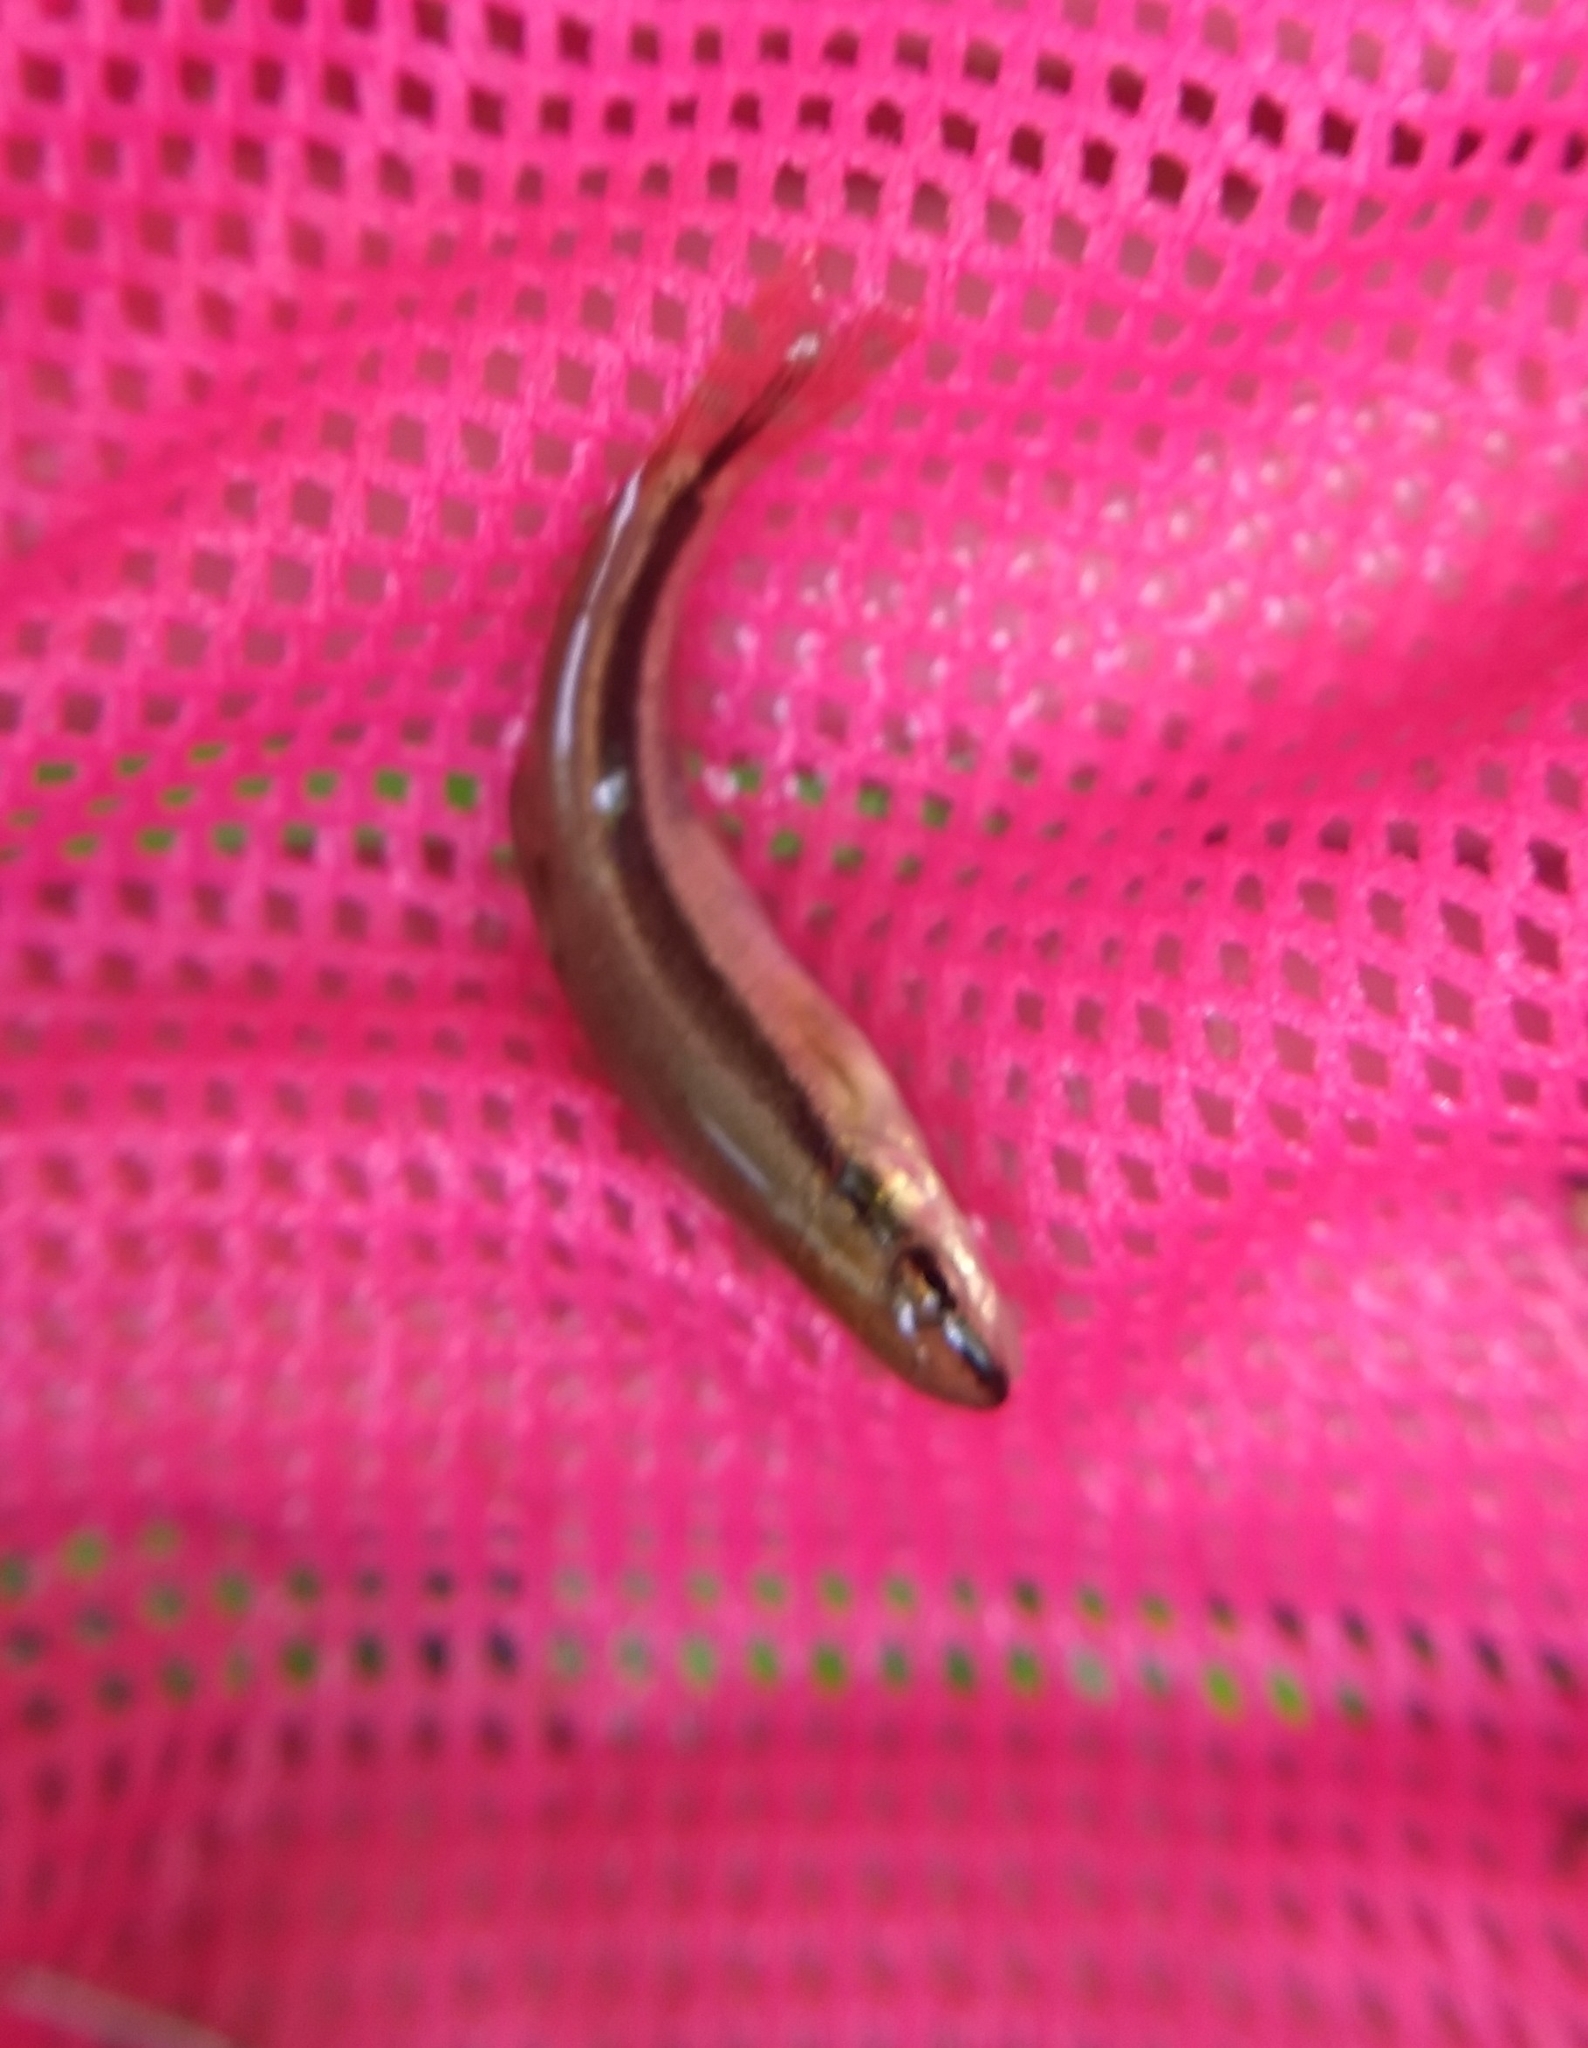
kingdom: Animalia
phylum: Chordata
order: Cypriniformes
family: Cyprinidae
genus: Rhinichthys
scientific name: Rhinichthys atratulus
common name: Eastern blacknose dace
